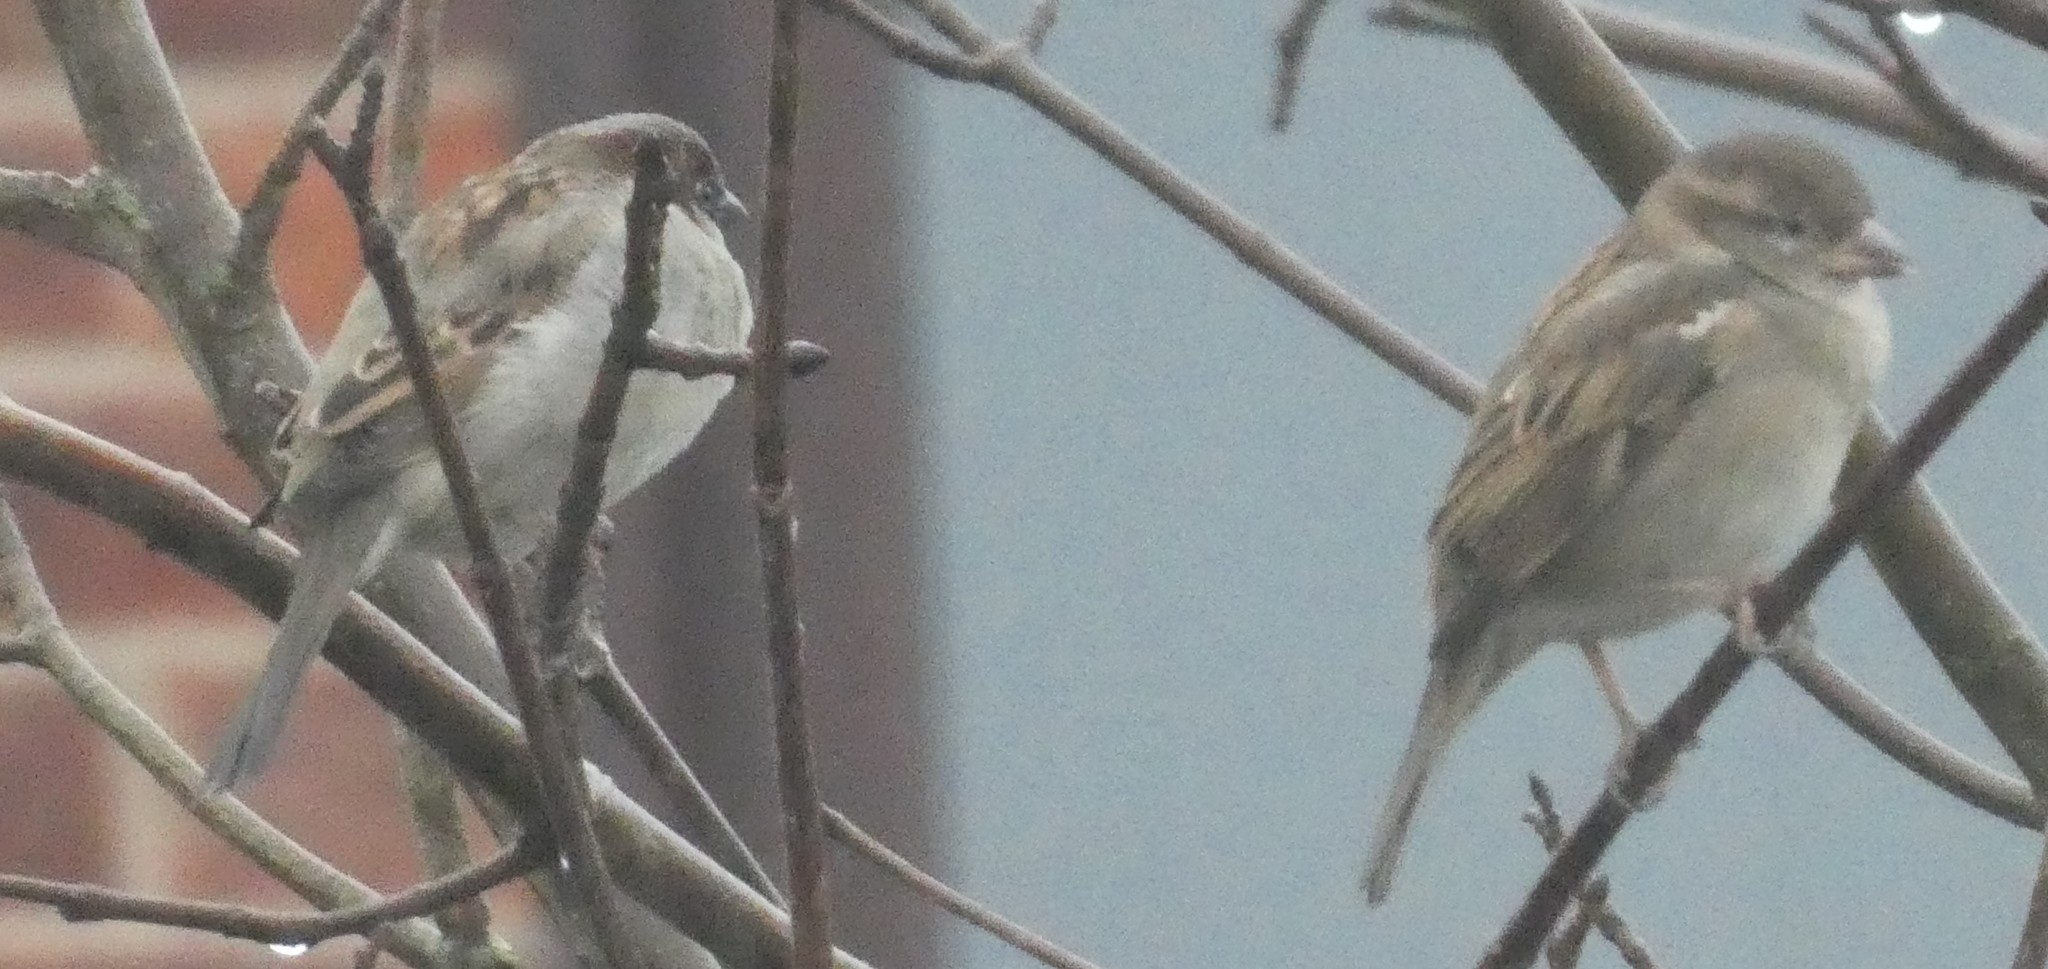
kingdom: Animalia
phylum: Chordata
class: Aves
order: Passeriformes
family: Passeridae
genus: Passer
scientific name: Passer domesticus
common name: House sparrow
